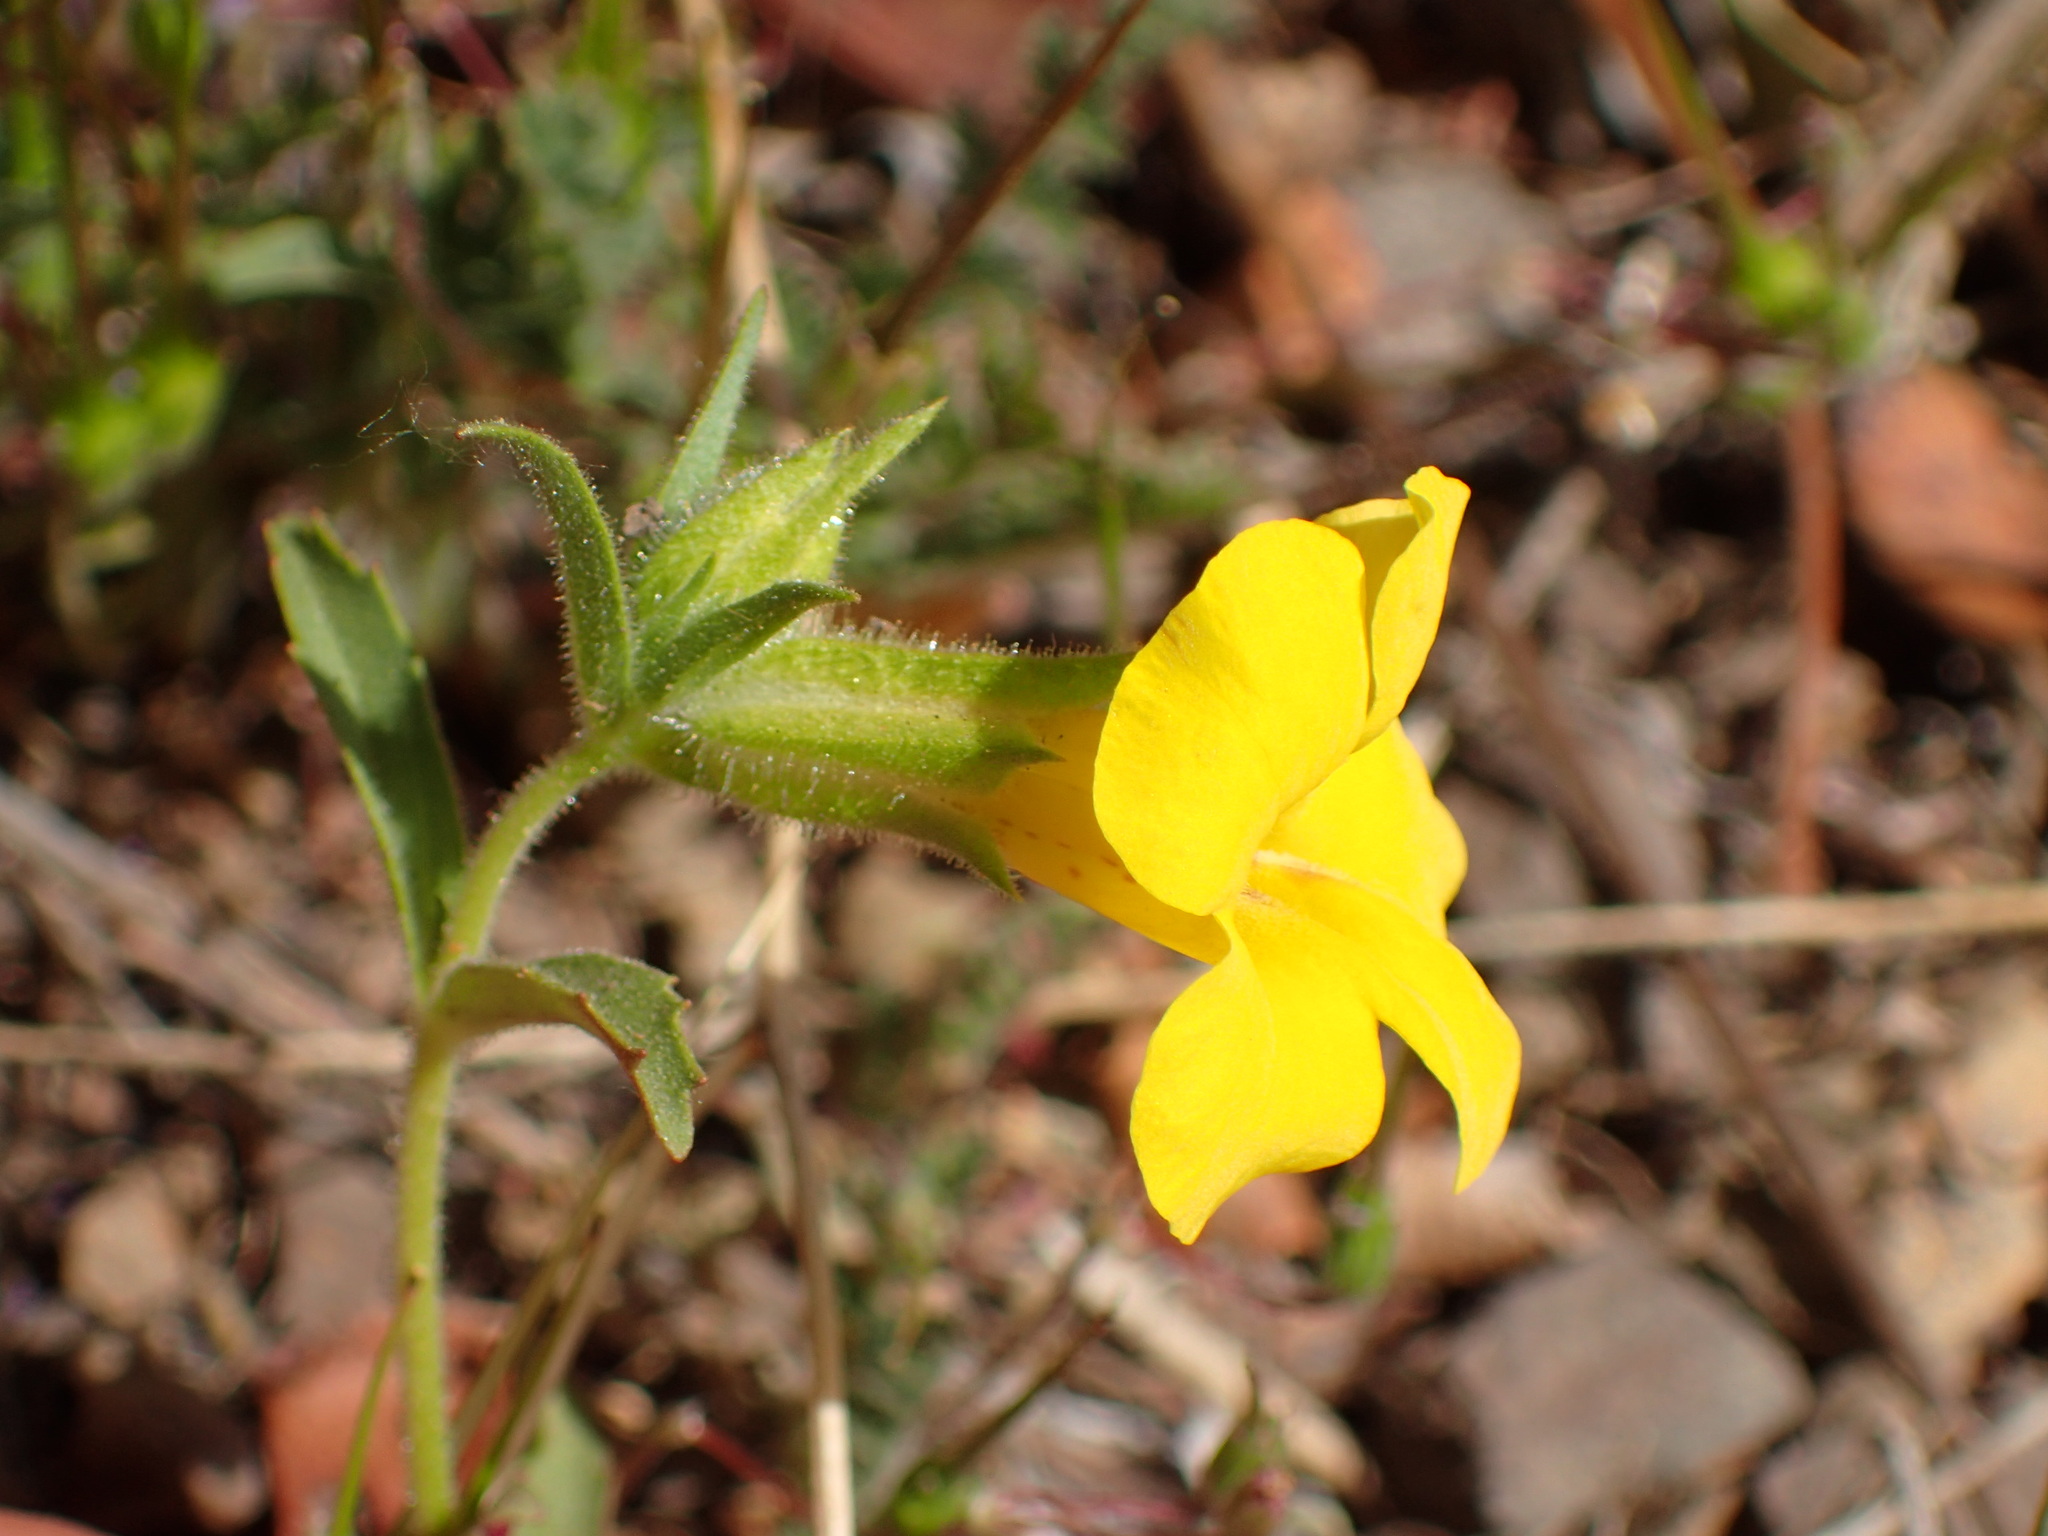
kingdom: Plantae
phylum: Tracheophyta
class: Magnoliopsida
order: Lamiales
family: Phrymaceae
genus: Diplacus
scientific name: Diplacus brevipes
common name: Wide-throat yellow monkey-flower
